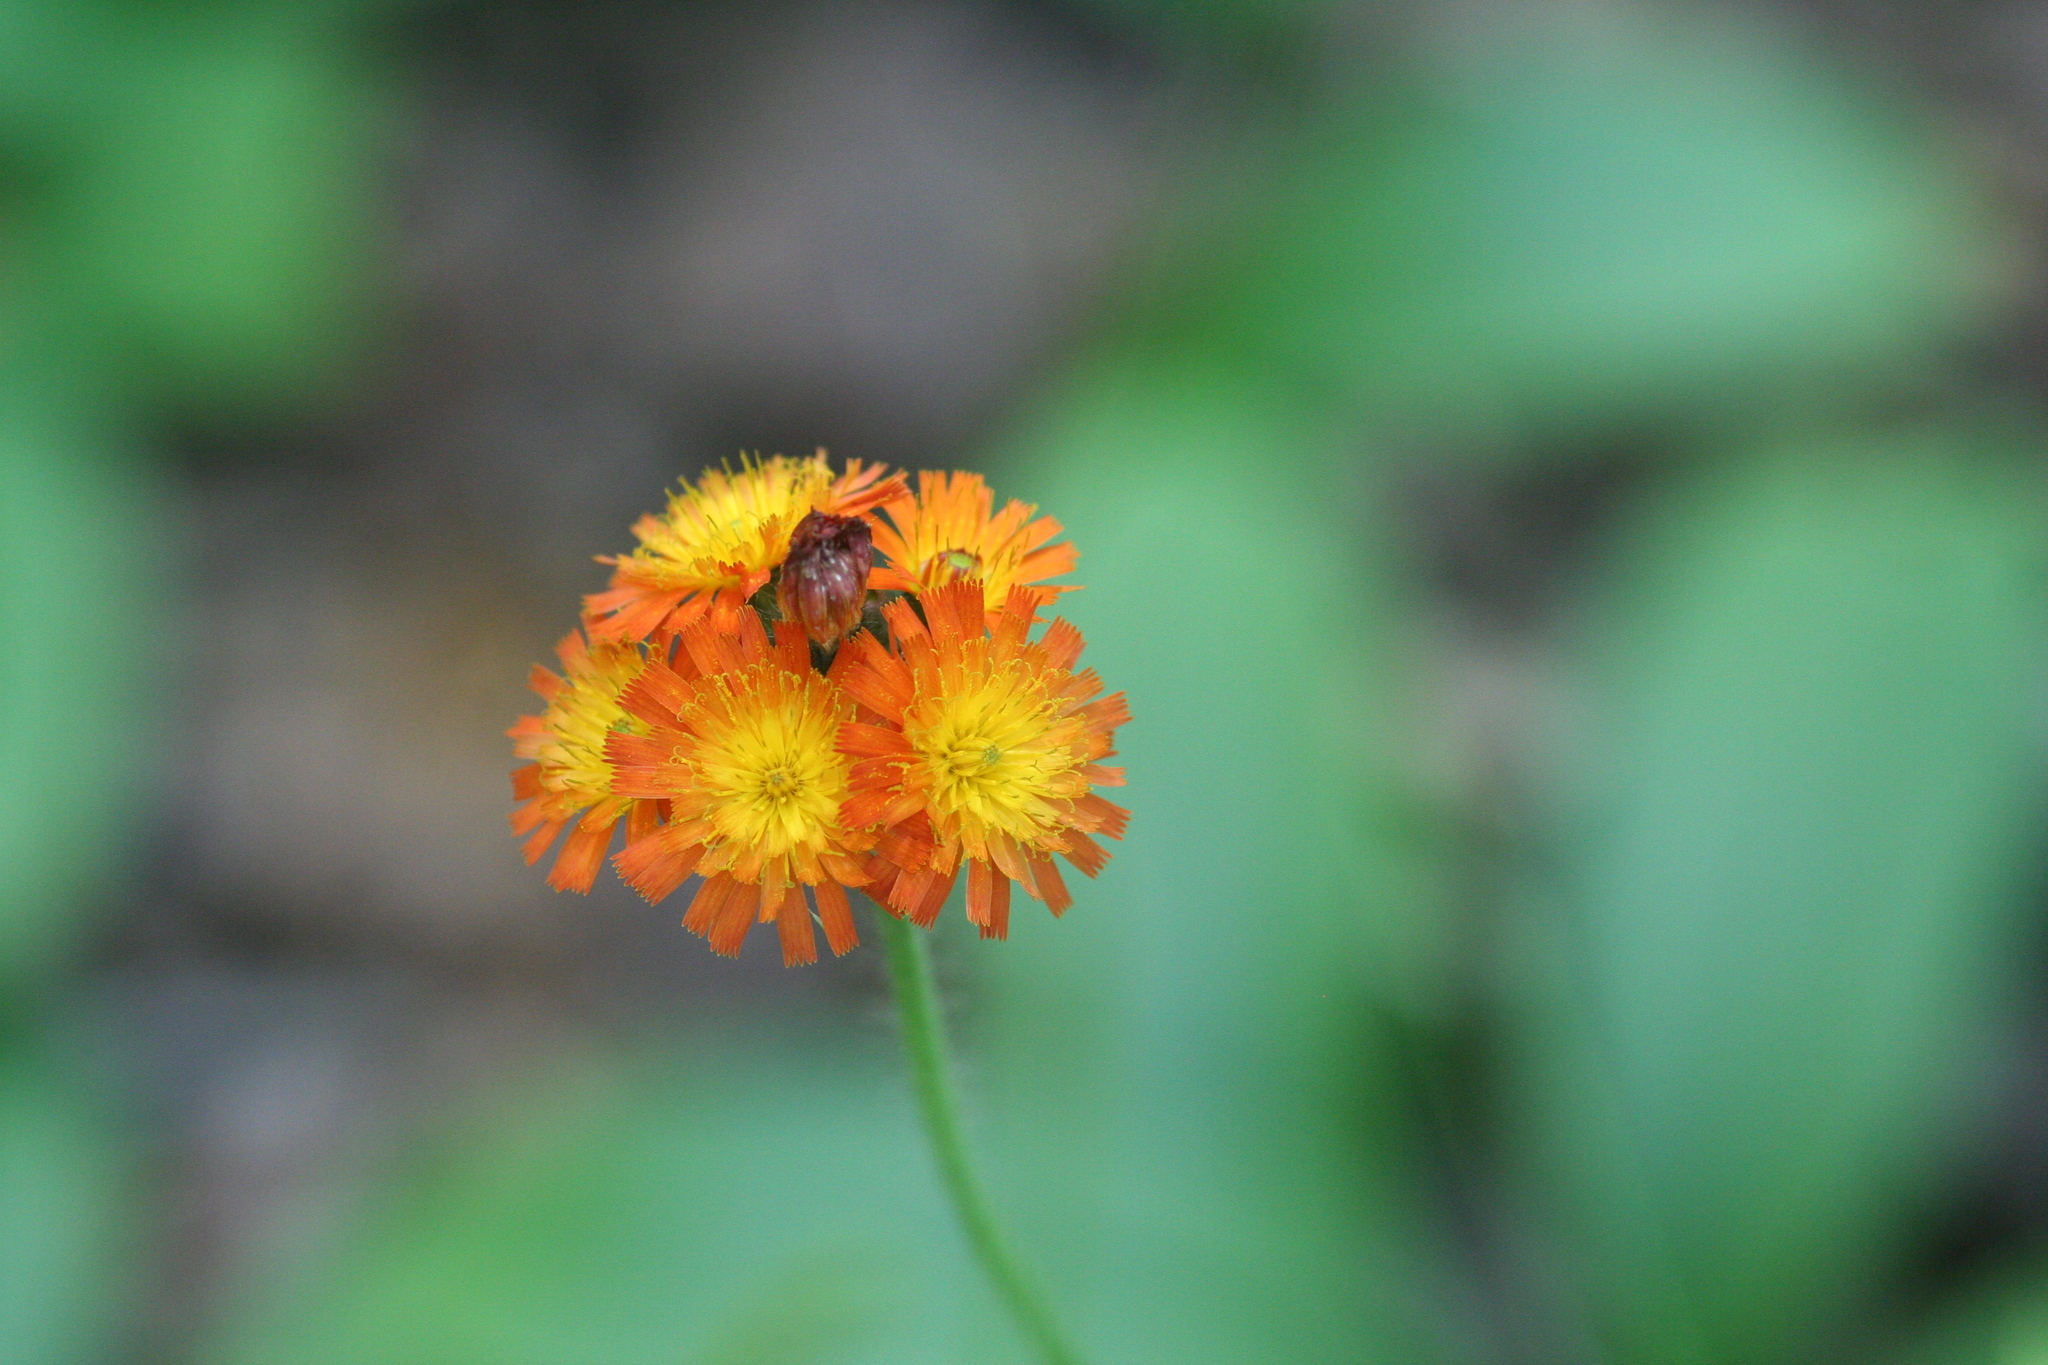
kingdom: Plantae
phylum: Tracheophyta
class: Magnoliopsida
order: Asterales
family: Asteraceae
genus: Pilosella
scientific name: Pilosella aurantiaca
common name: Fox-and-cubs
